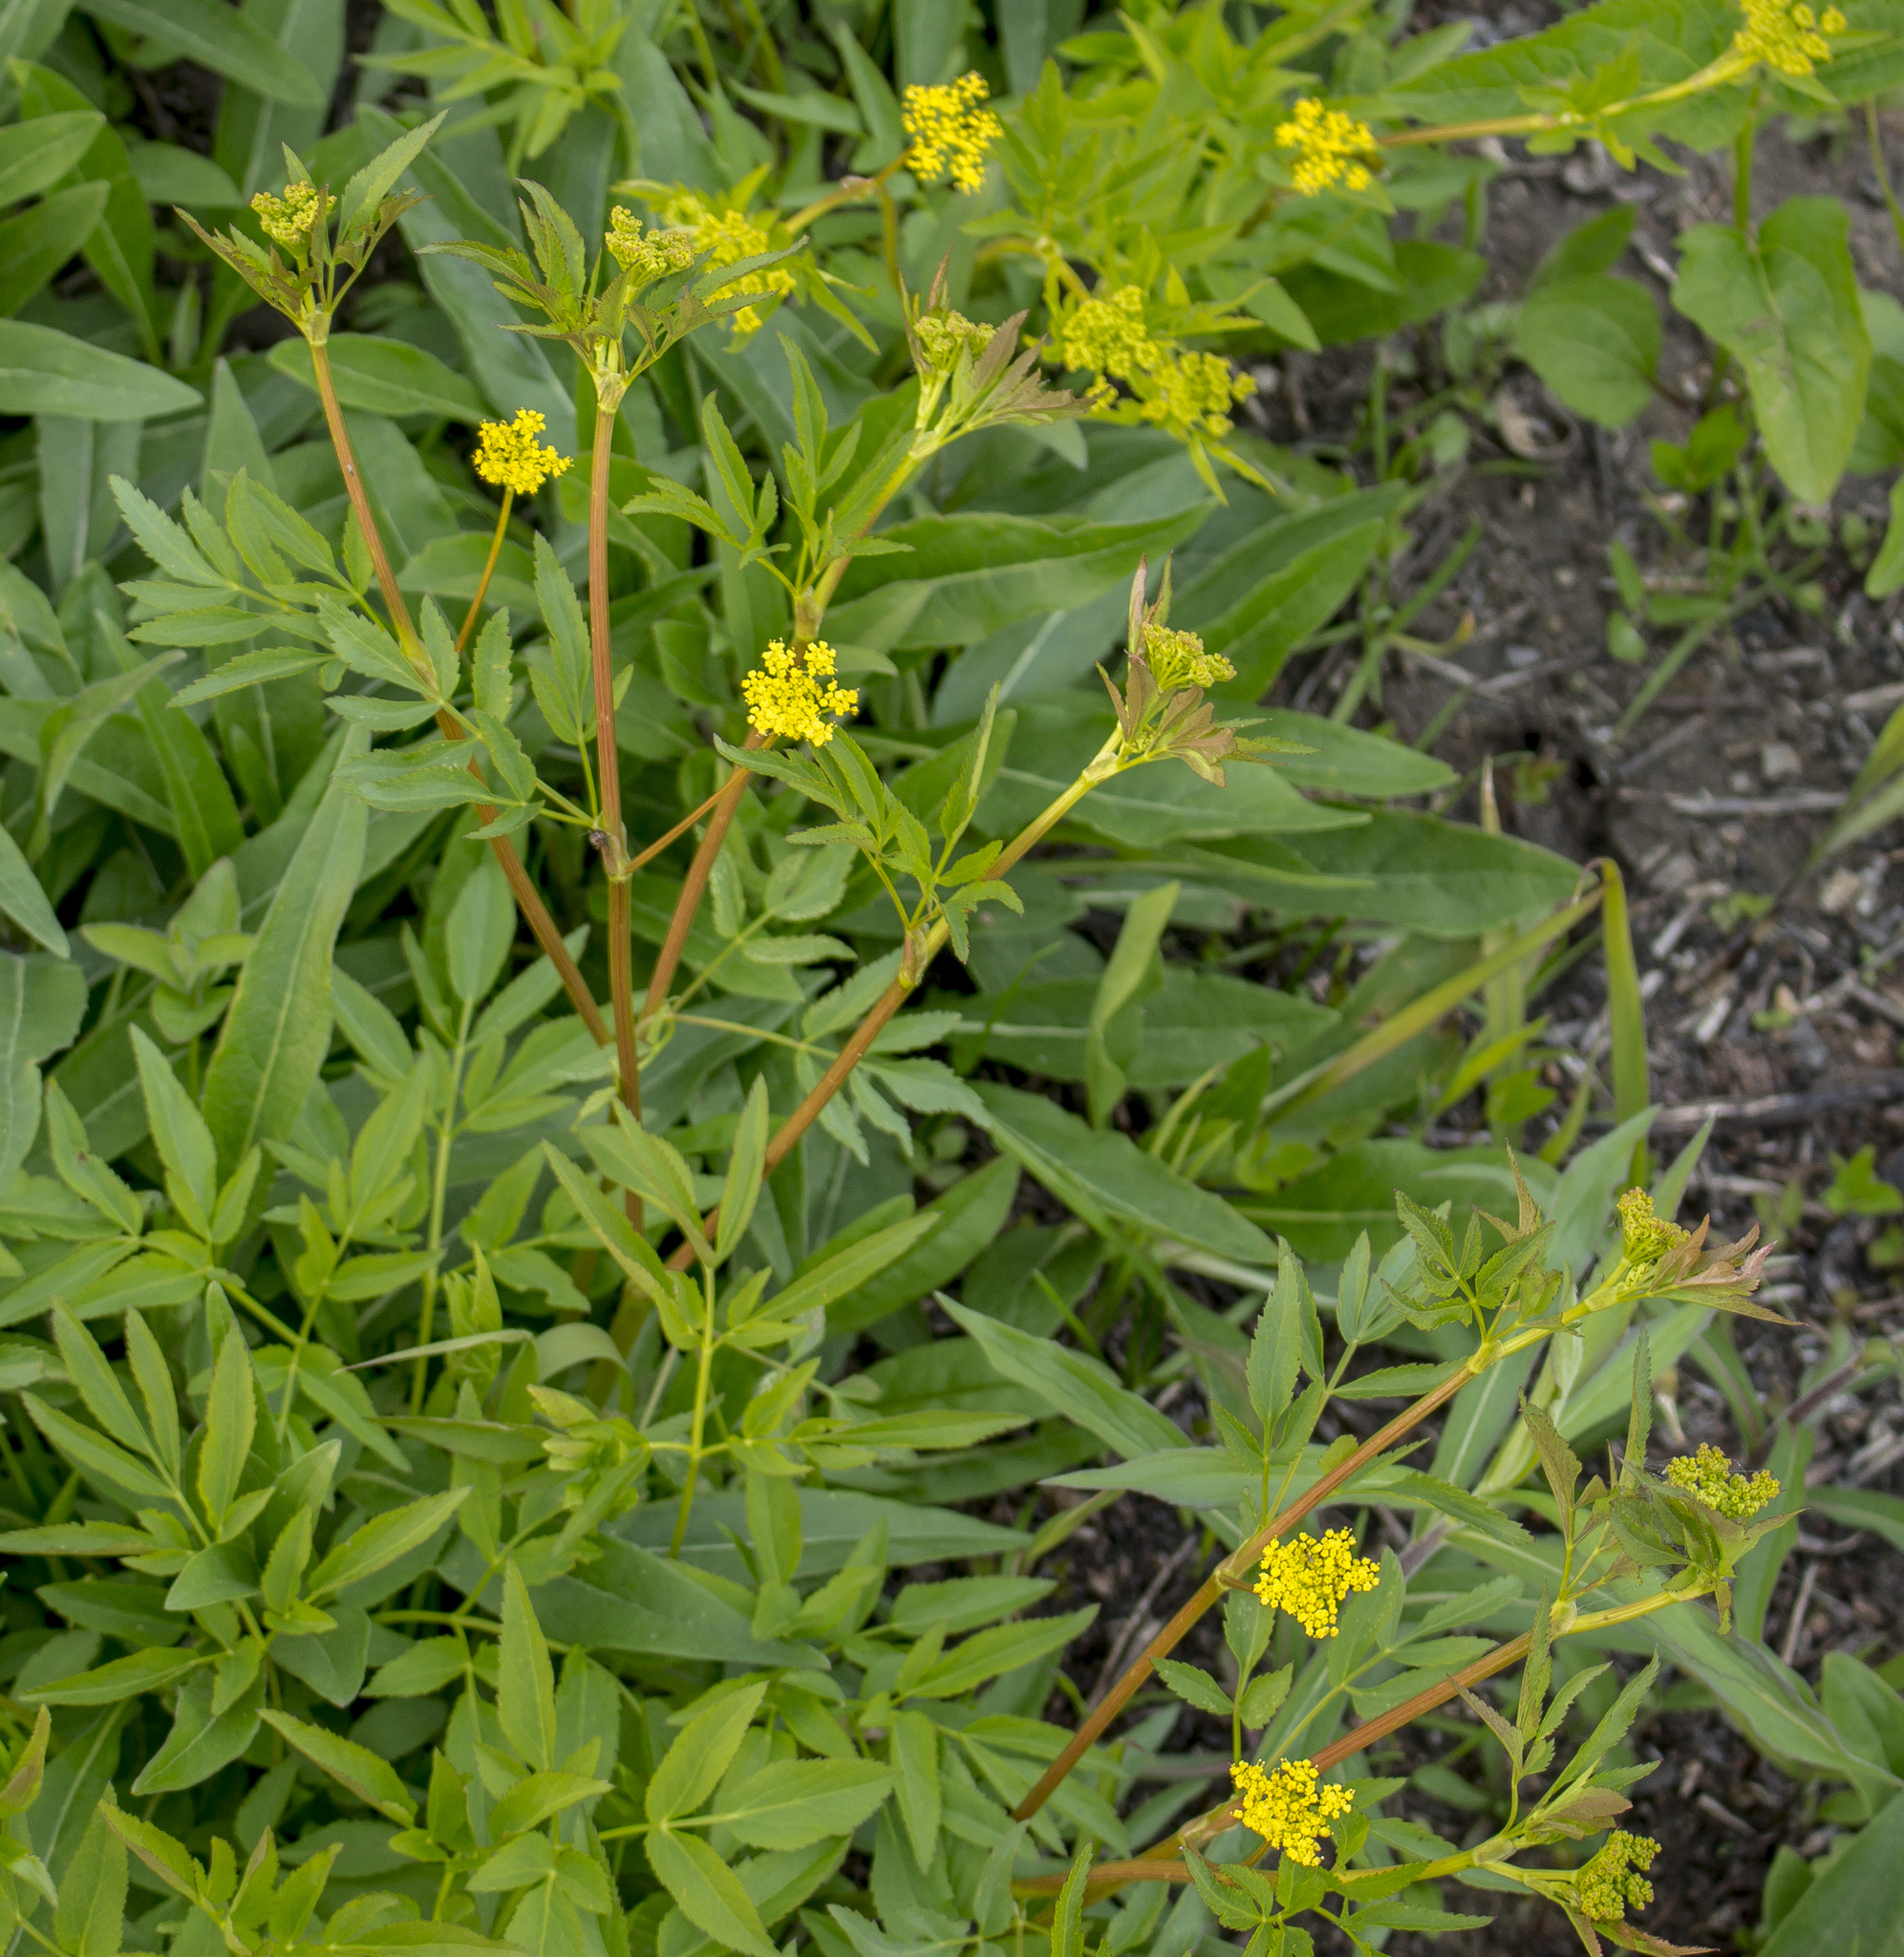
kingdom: Plantae
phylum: Tracheophyta
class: Magnoliopsida
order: Apiales
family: Apiaceae
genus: Zizia
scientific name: Zizia aurea
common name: Golden alexanders
